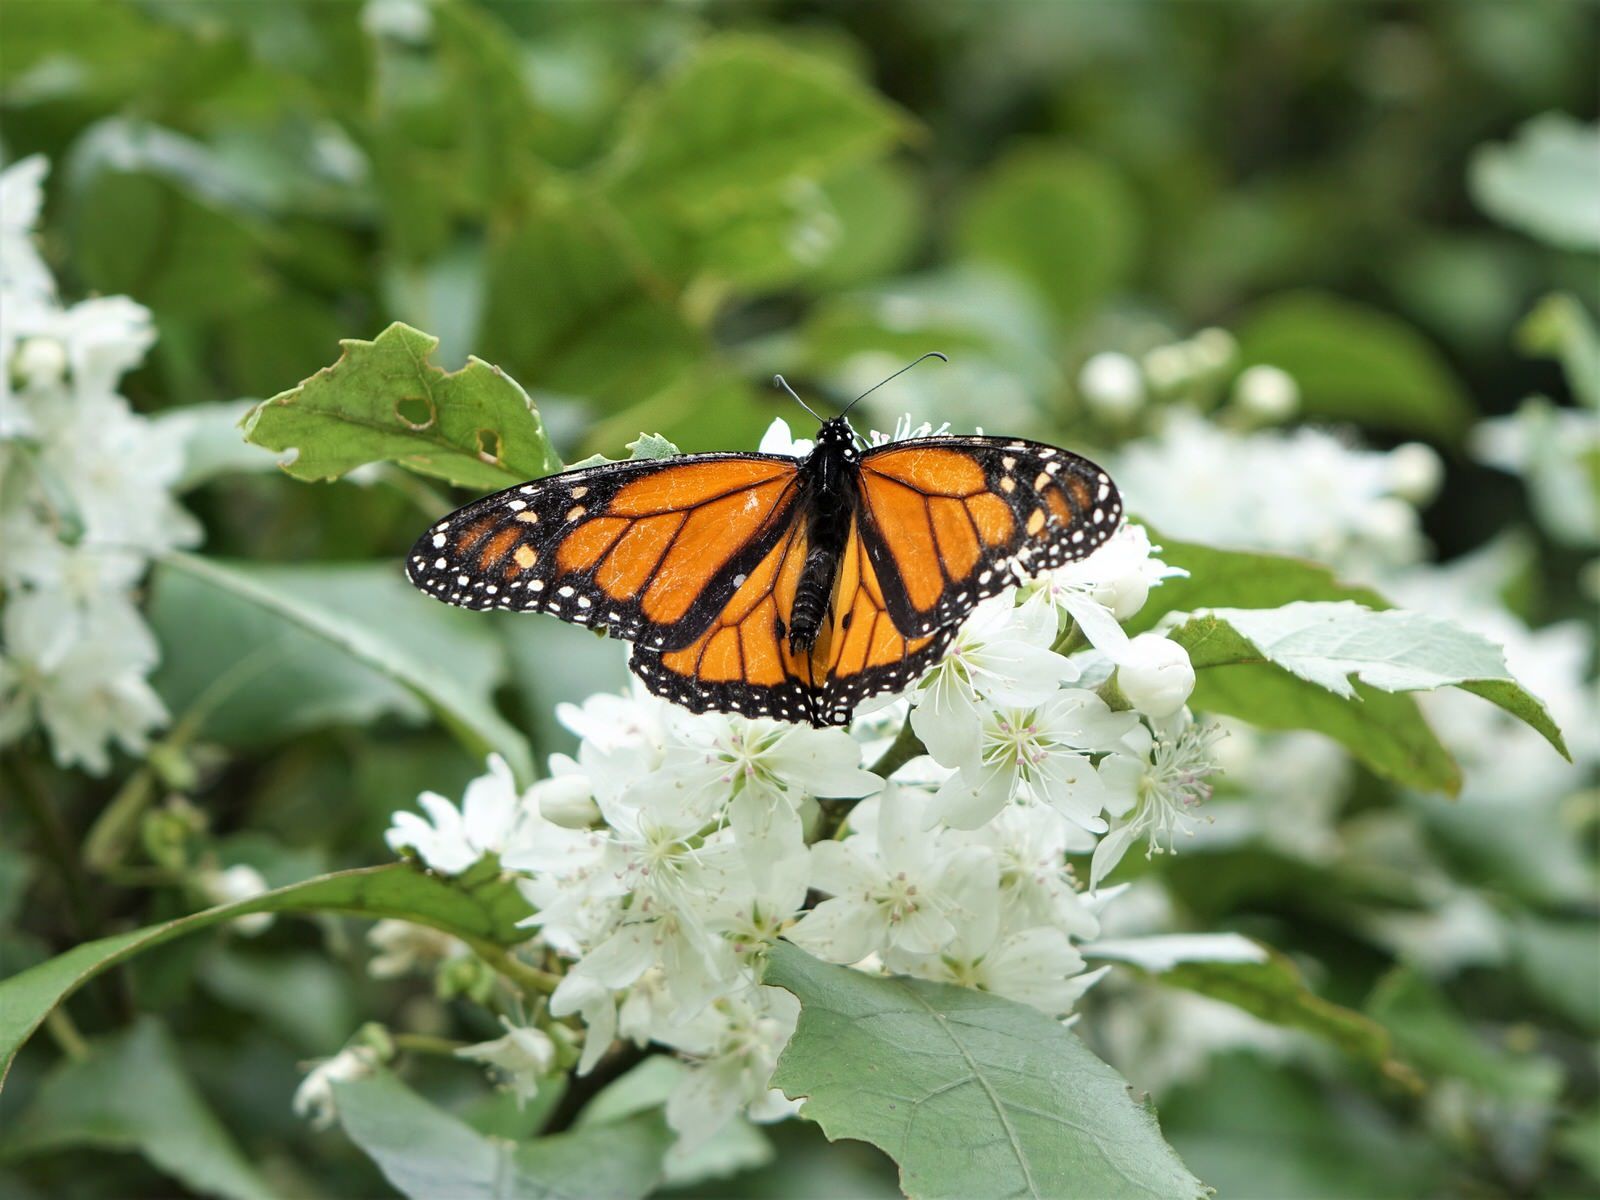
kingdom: Animalia
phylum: Arthropoda
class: Insecta
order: Lepidoptera
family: Nymphalidae
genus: Danaus
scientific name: Danaus plexippus
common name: Monarch
